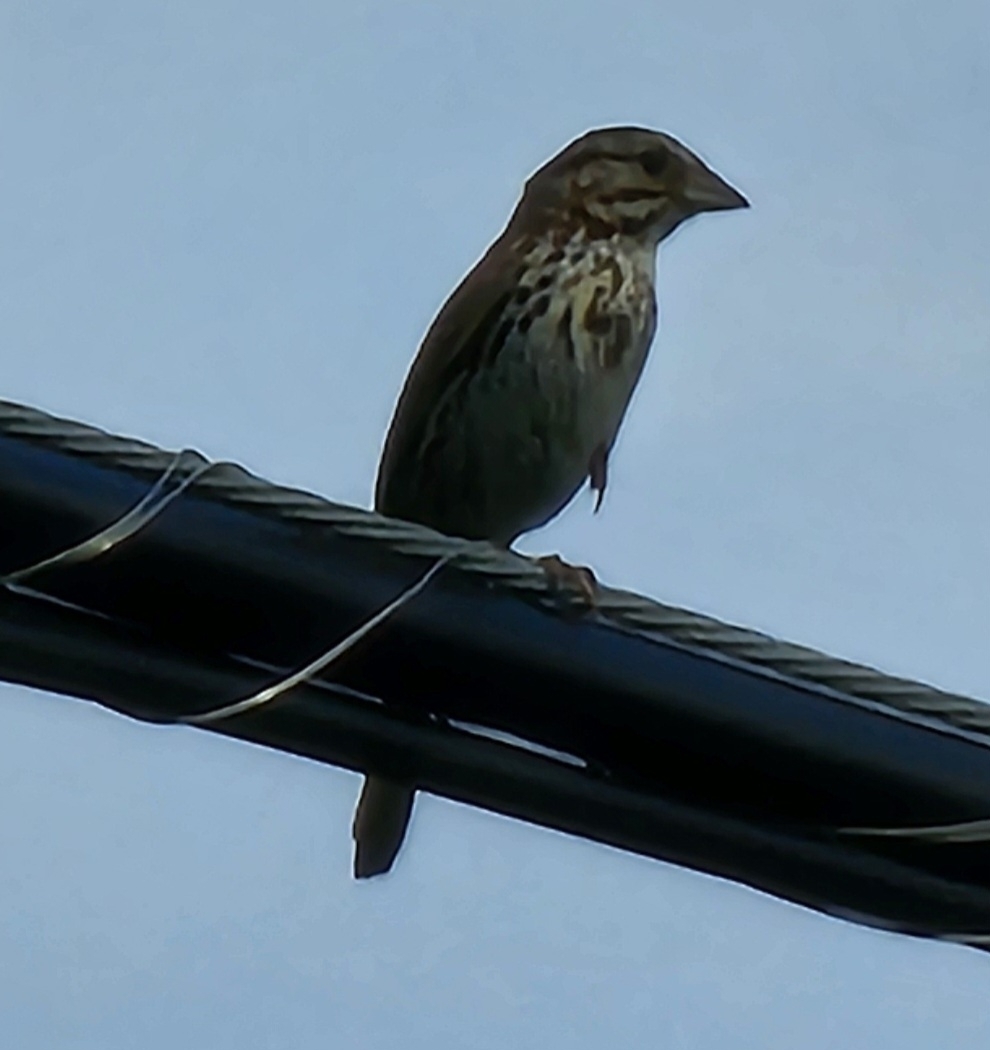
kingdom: Animalia
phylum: Chordata
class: Aves
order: Passeriformes
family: Passerellidae
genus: Melospiza
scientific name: Melospiza melodia
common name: Song sparrow
